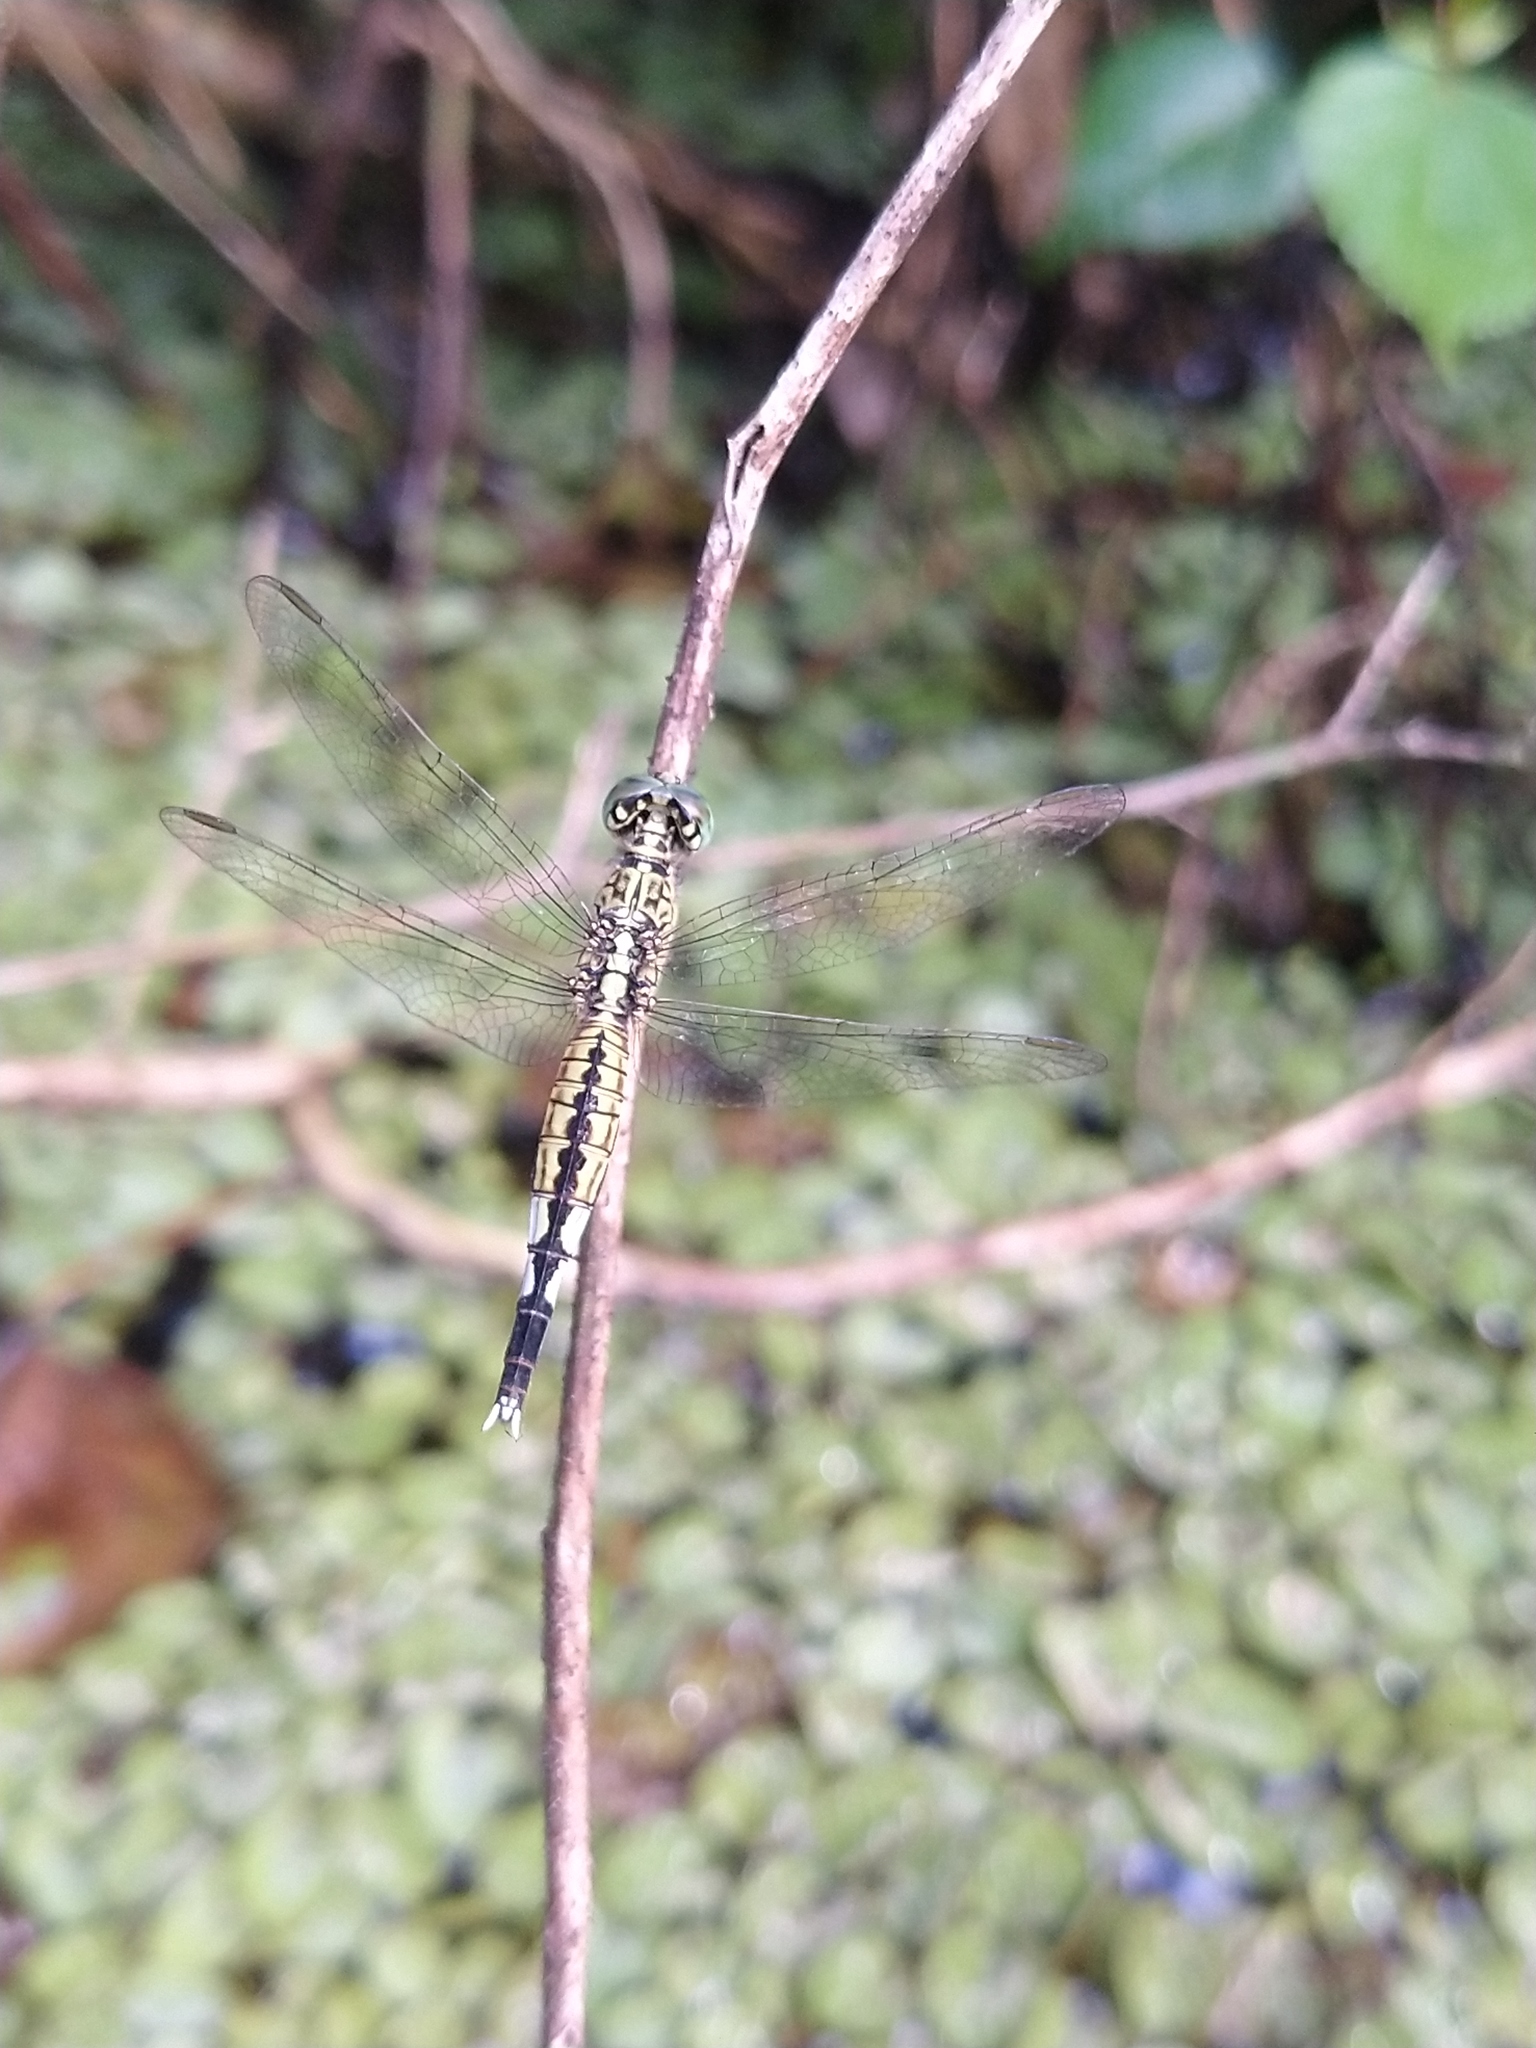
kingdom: Animalia
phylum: Arthropoda
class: Insecta
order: Odonata
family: Libellulidae
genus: Acisoma
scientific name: Acisoma panorpoides
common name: Asian pintail
